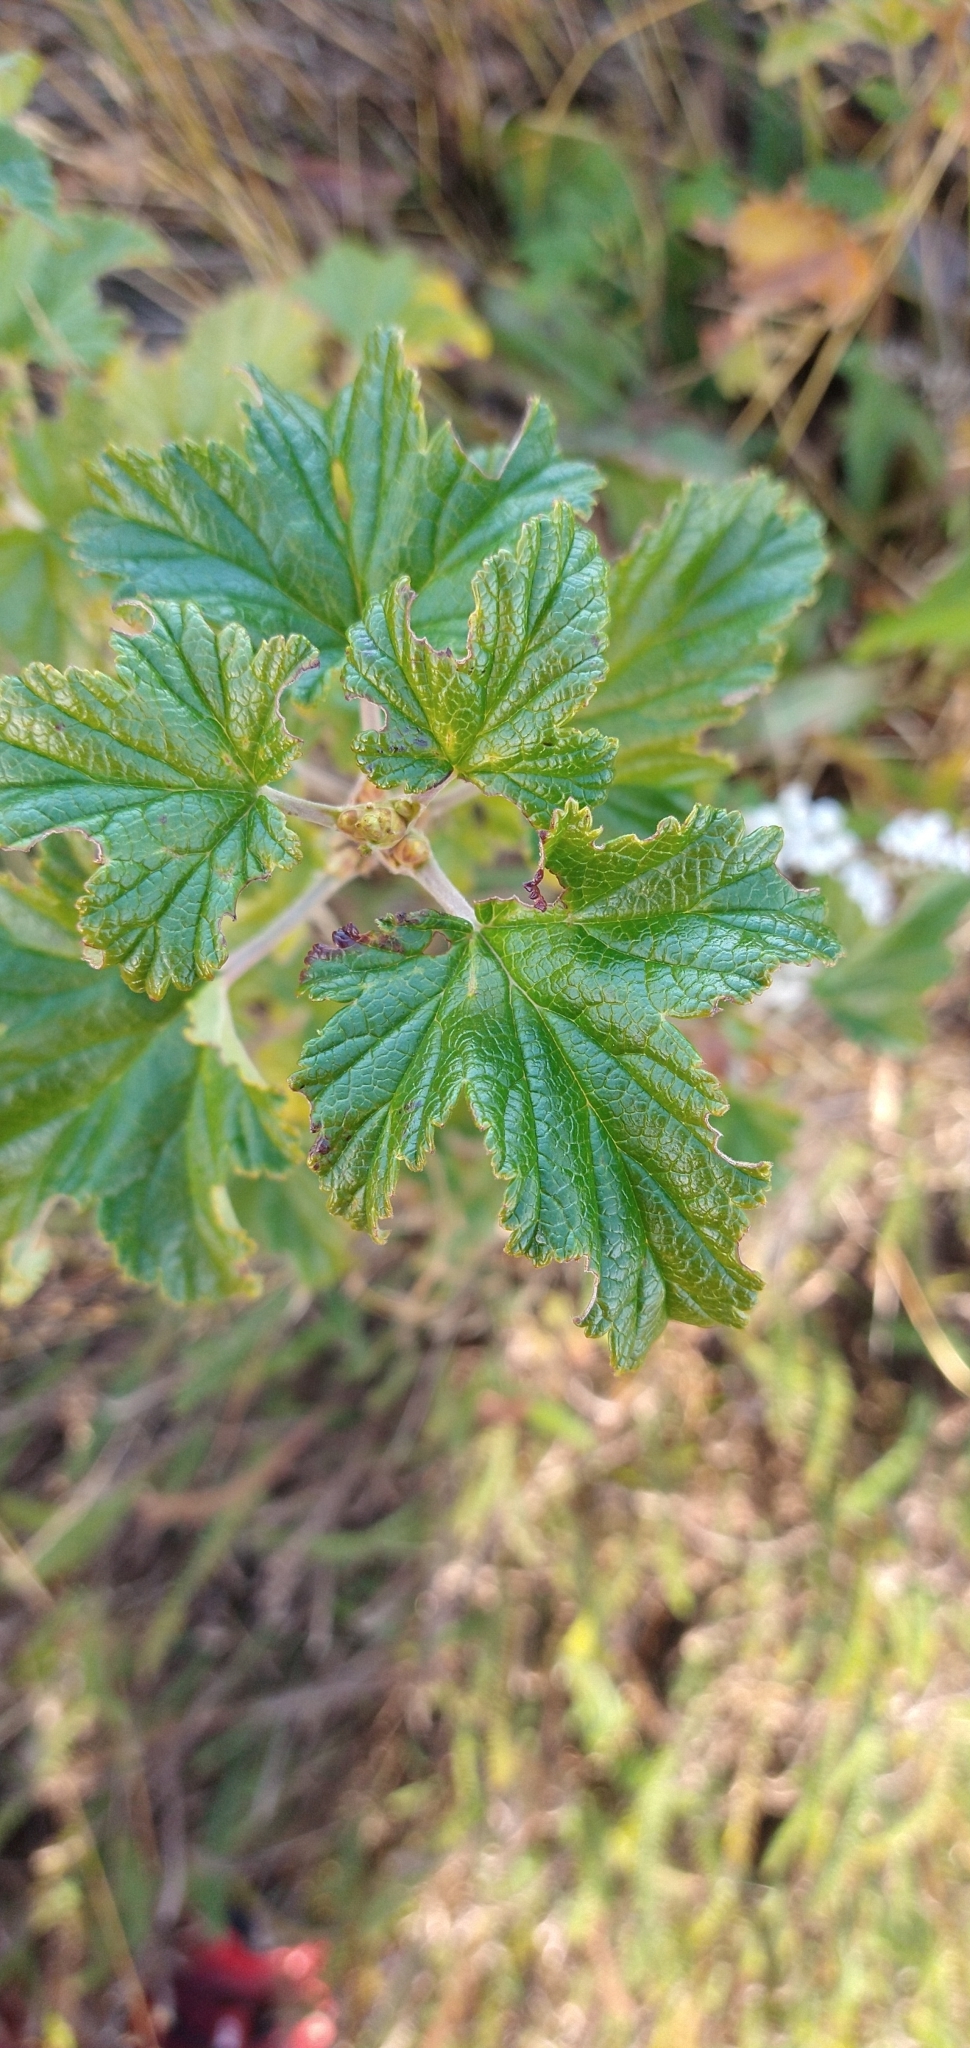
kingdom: Plantae
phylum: Tracheophyta
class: Magnoliopsida
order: Saxifragales
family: Grossulariaceae
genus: Ribes
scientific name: Ribes magellanicum
